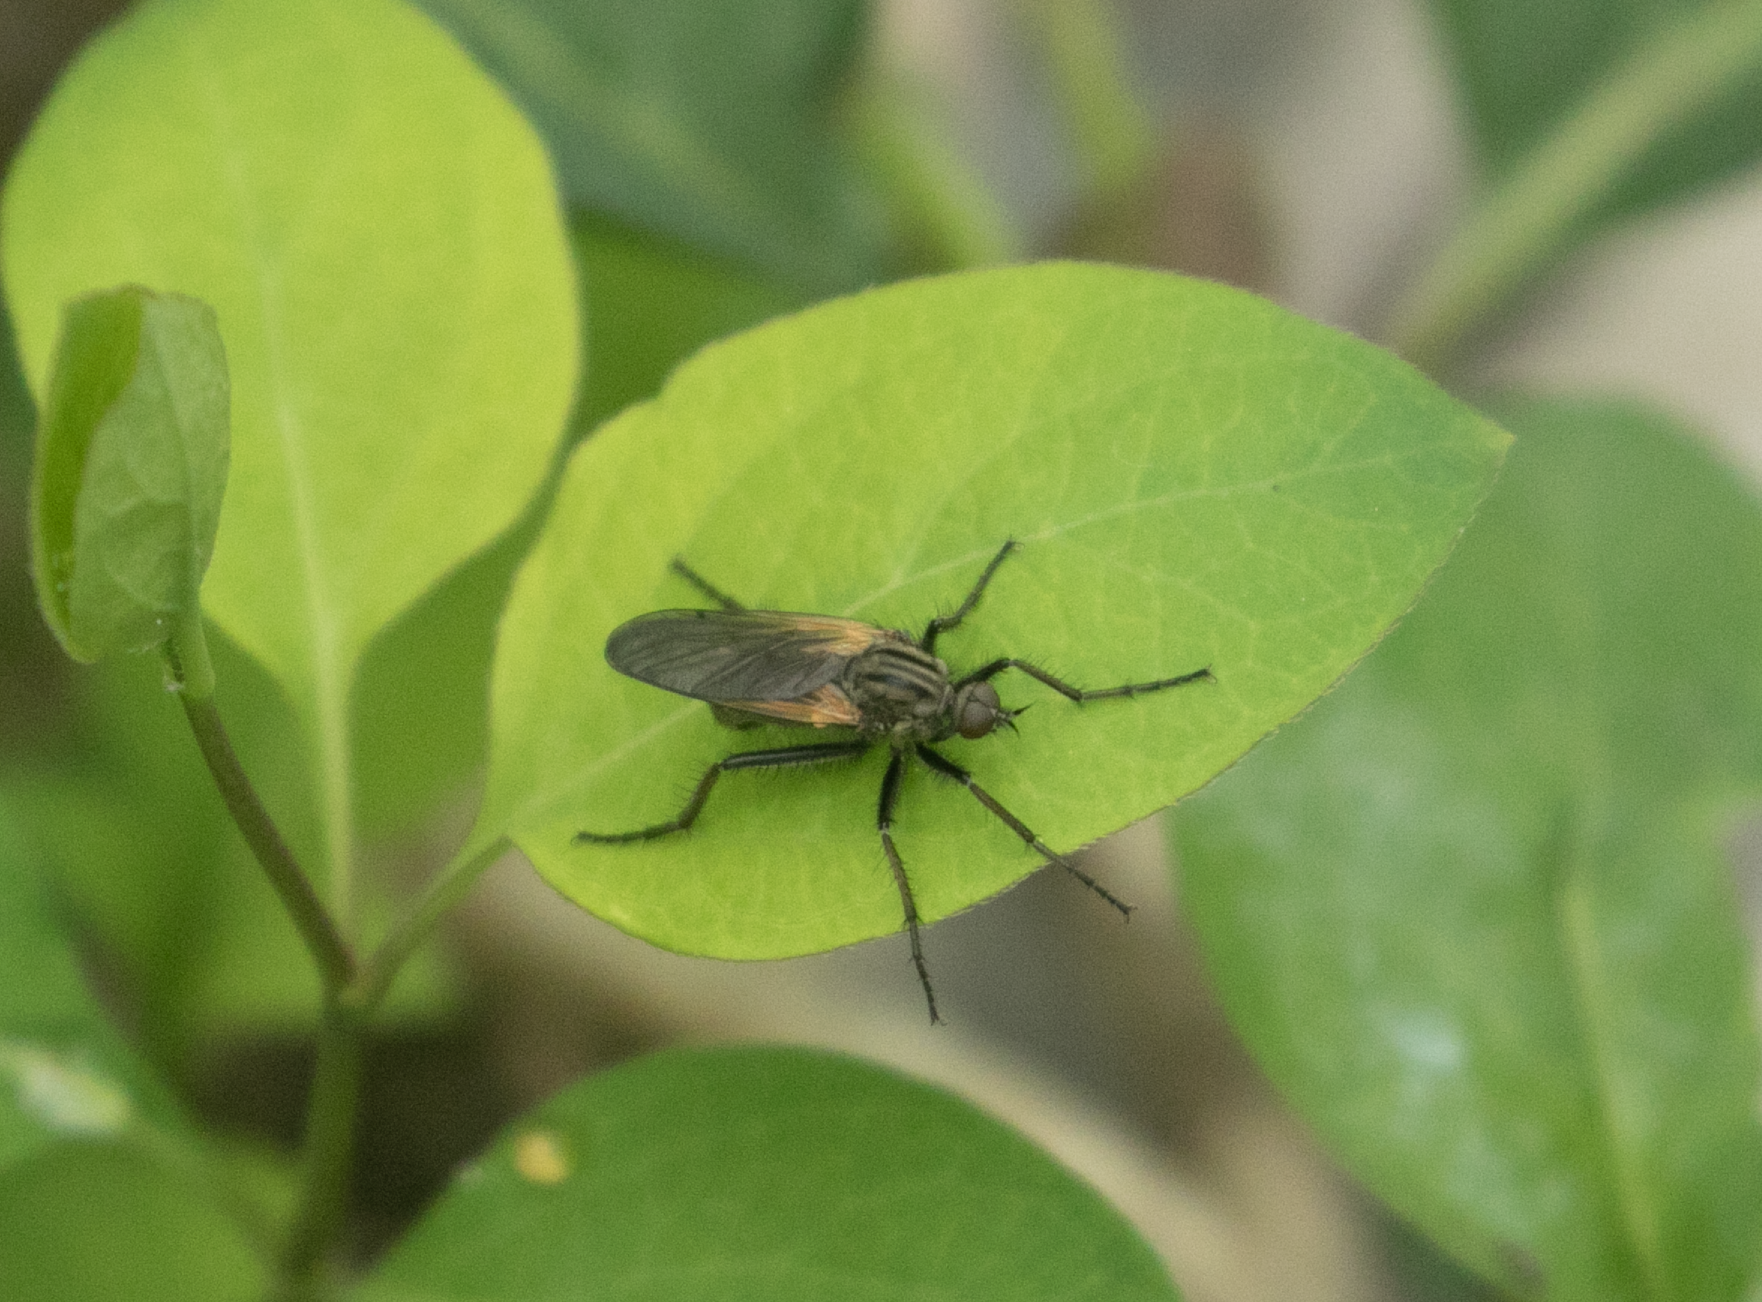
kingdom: Animalia
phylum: Arthropoda
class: Insecta
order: Diptera
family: Empididae
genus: Empis
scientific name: Empis tessellata
